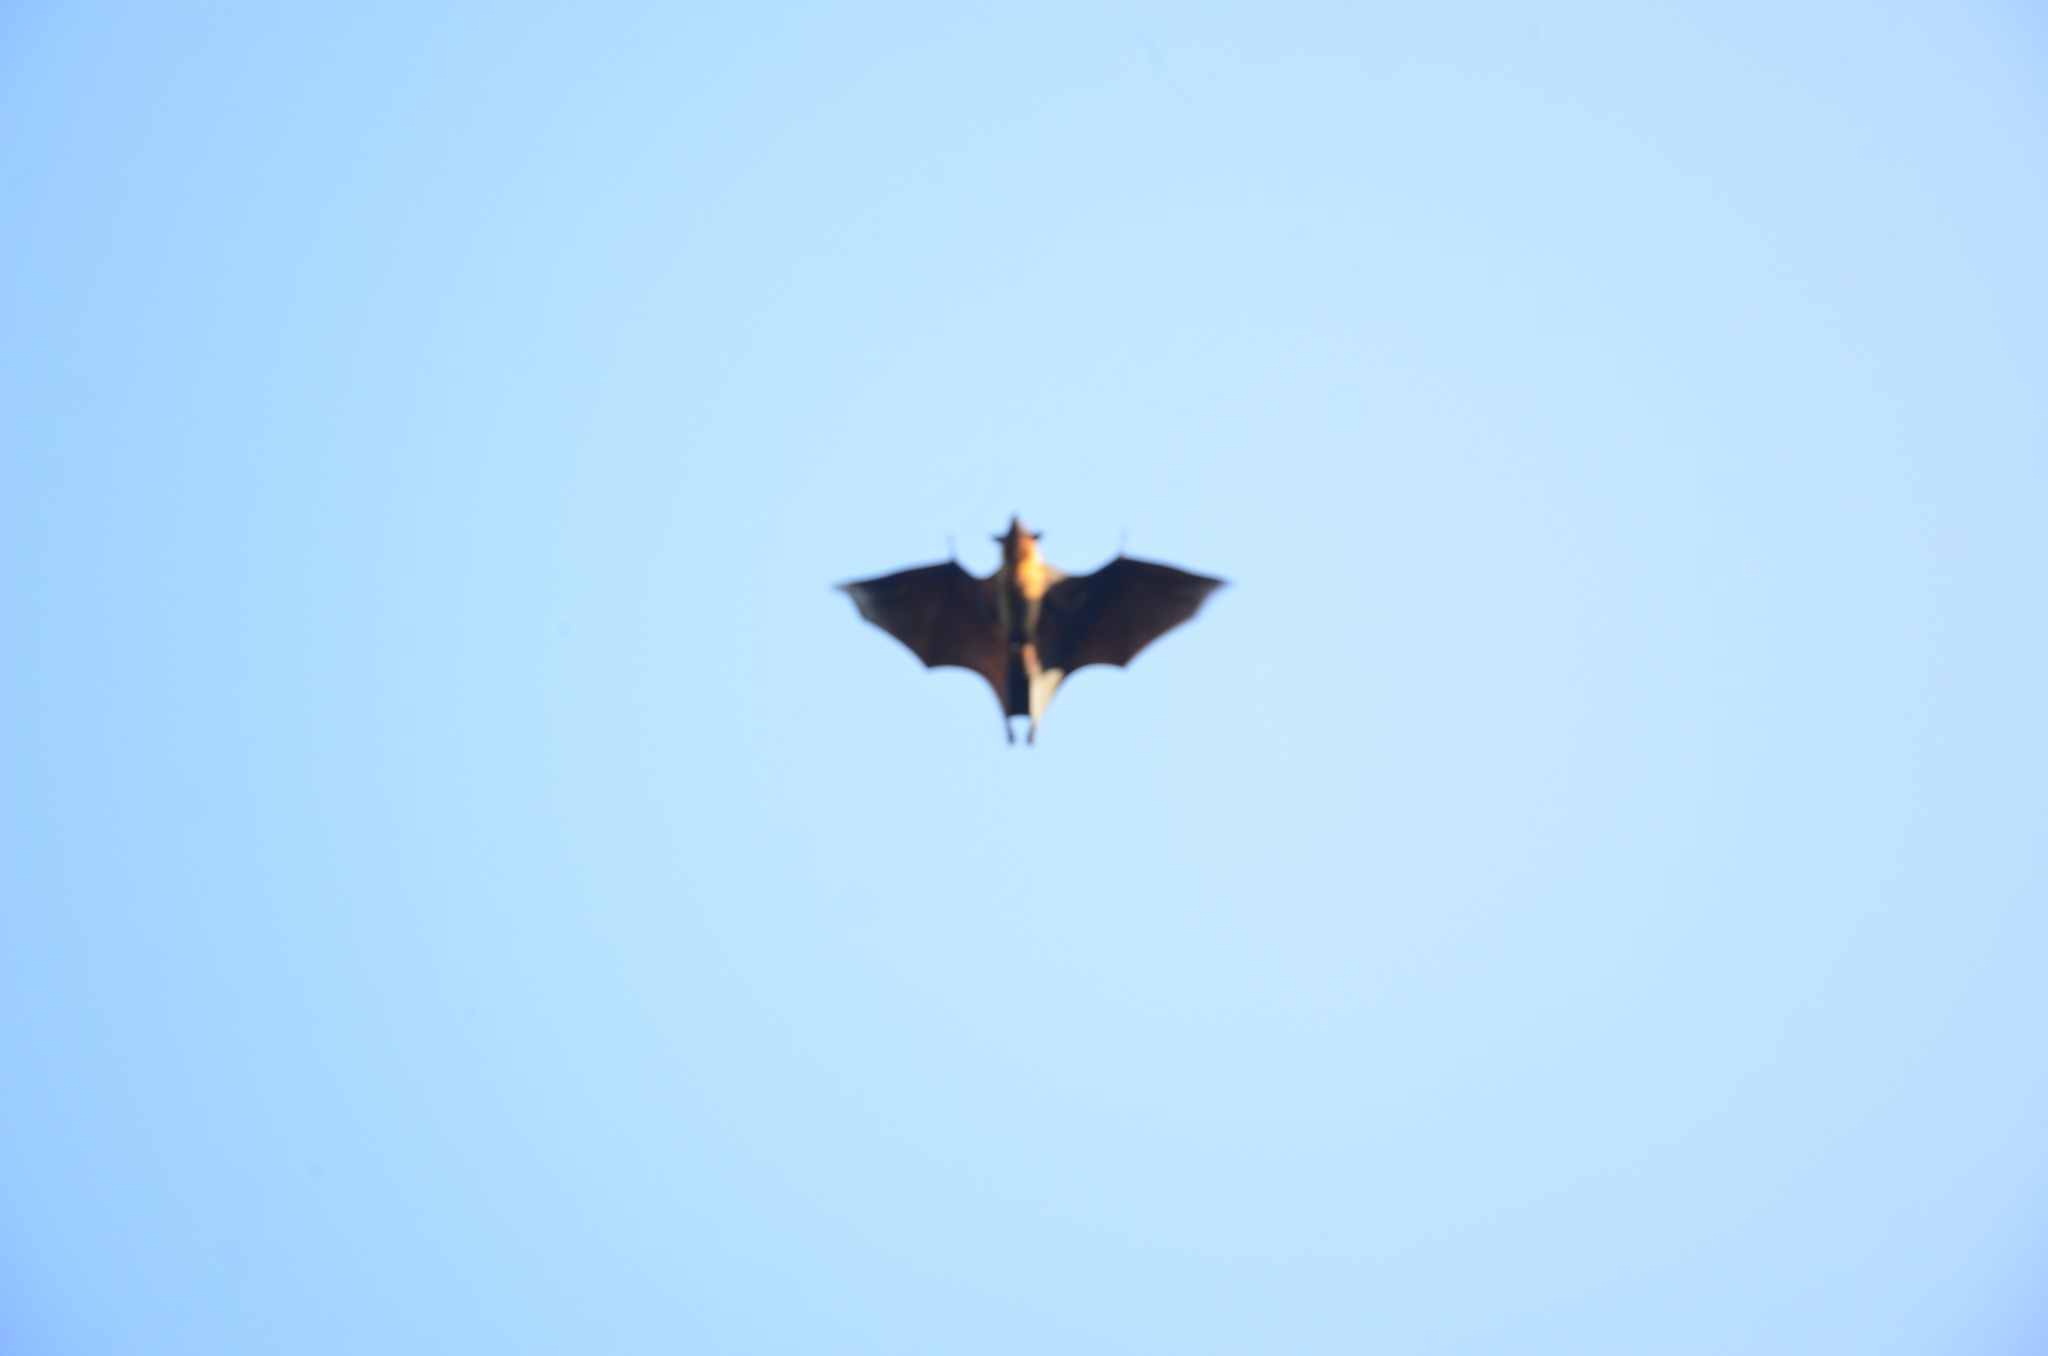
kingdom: Animalia
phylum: Chordata
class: Mammalia
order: Chiroptera
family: Pteropodidae
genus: Pteropus
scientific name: Pteropus vampyrus
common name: Large flying fox
